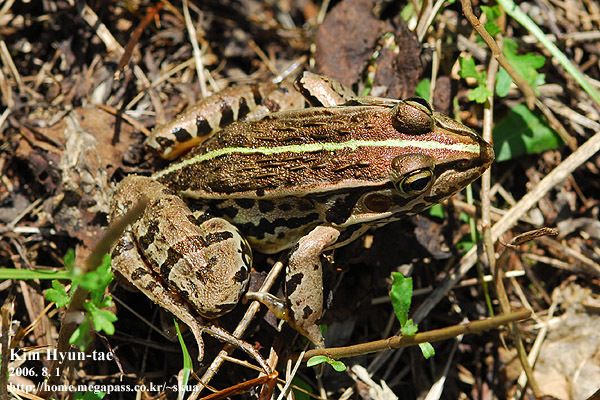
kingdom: Animalia
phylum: Chordata
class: Amphibia
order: Anura
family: Ranidae
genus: Pelophylax
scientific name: Pelophylax nigromaculatus
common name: Black-spotted pond frog
